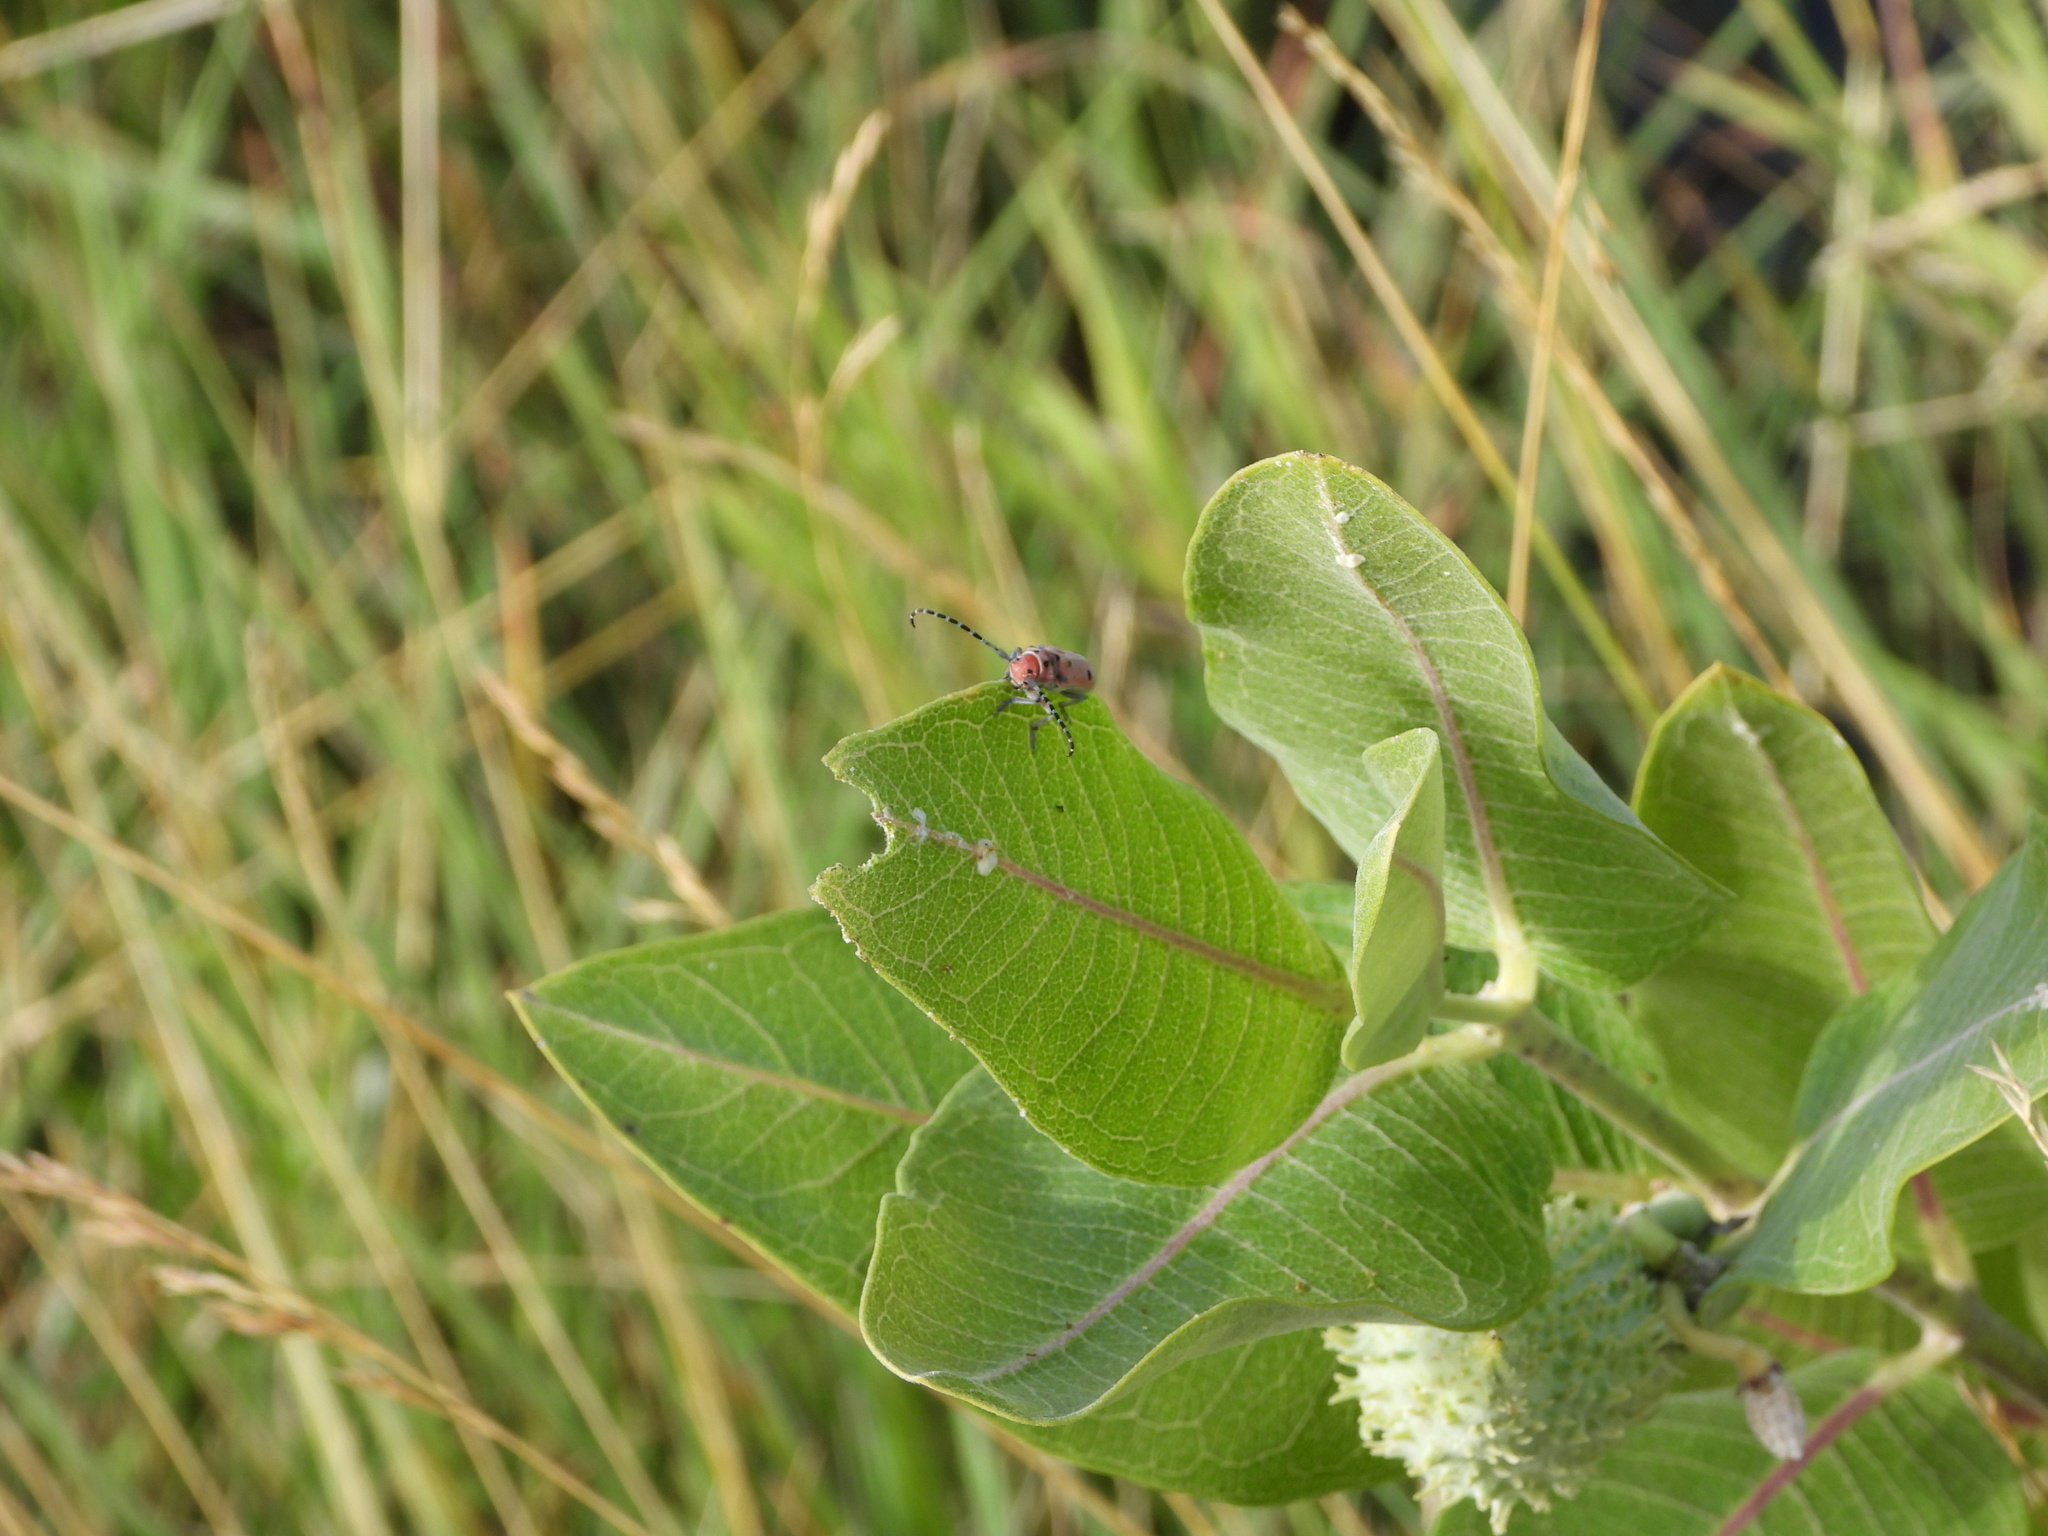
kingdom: Animalia
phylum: Arthropoda
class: Insecta
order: Coleoptera
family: Cerambycidae
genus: Tetraopes
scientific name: Tetraopes annulatus
